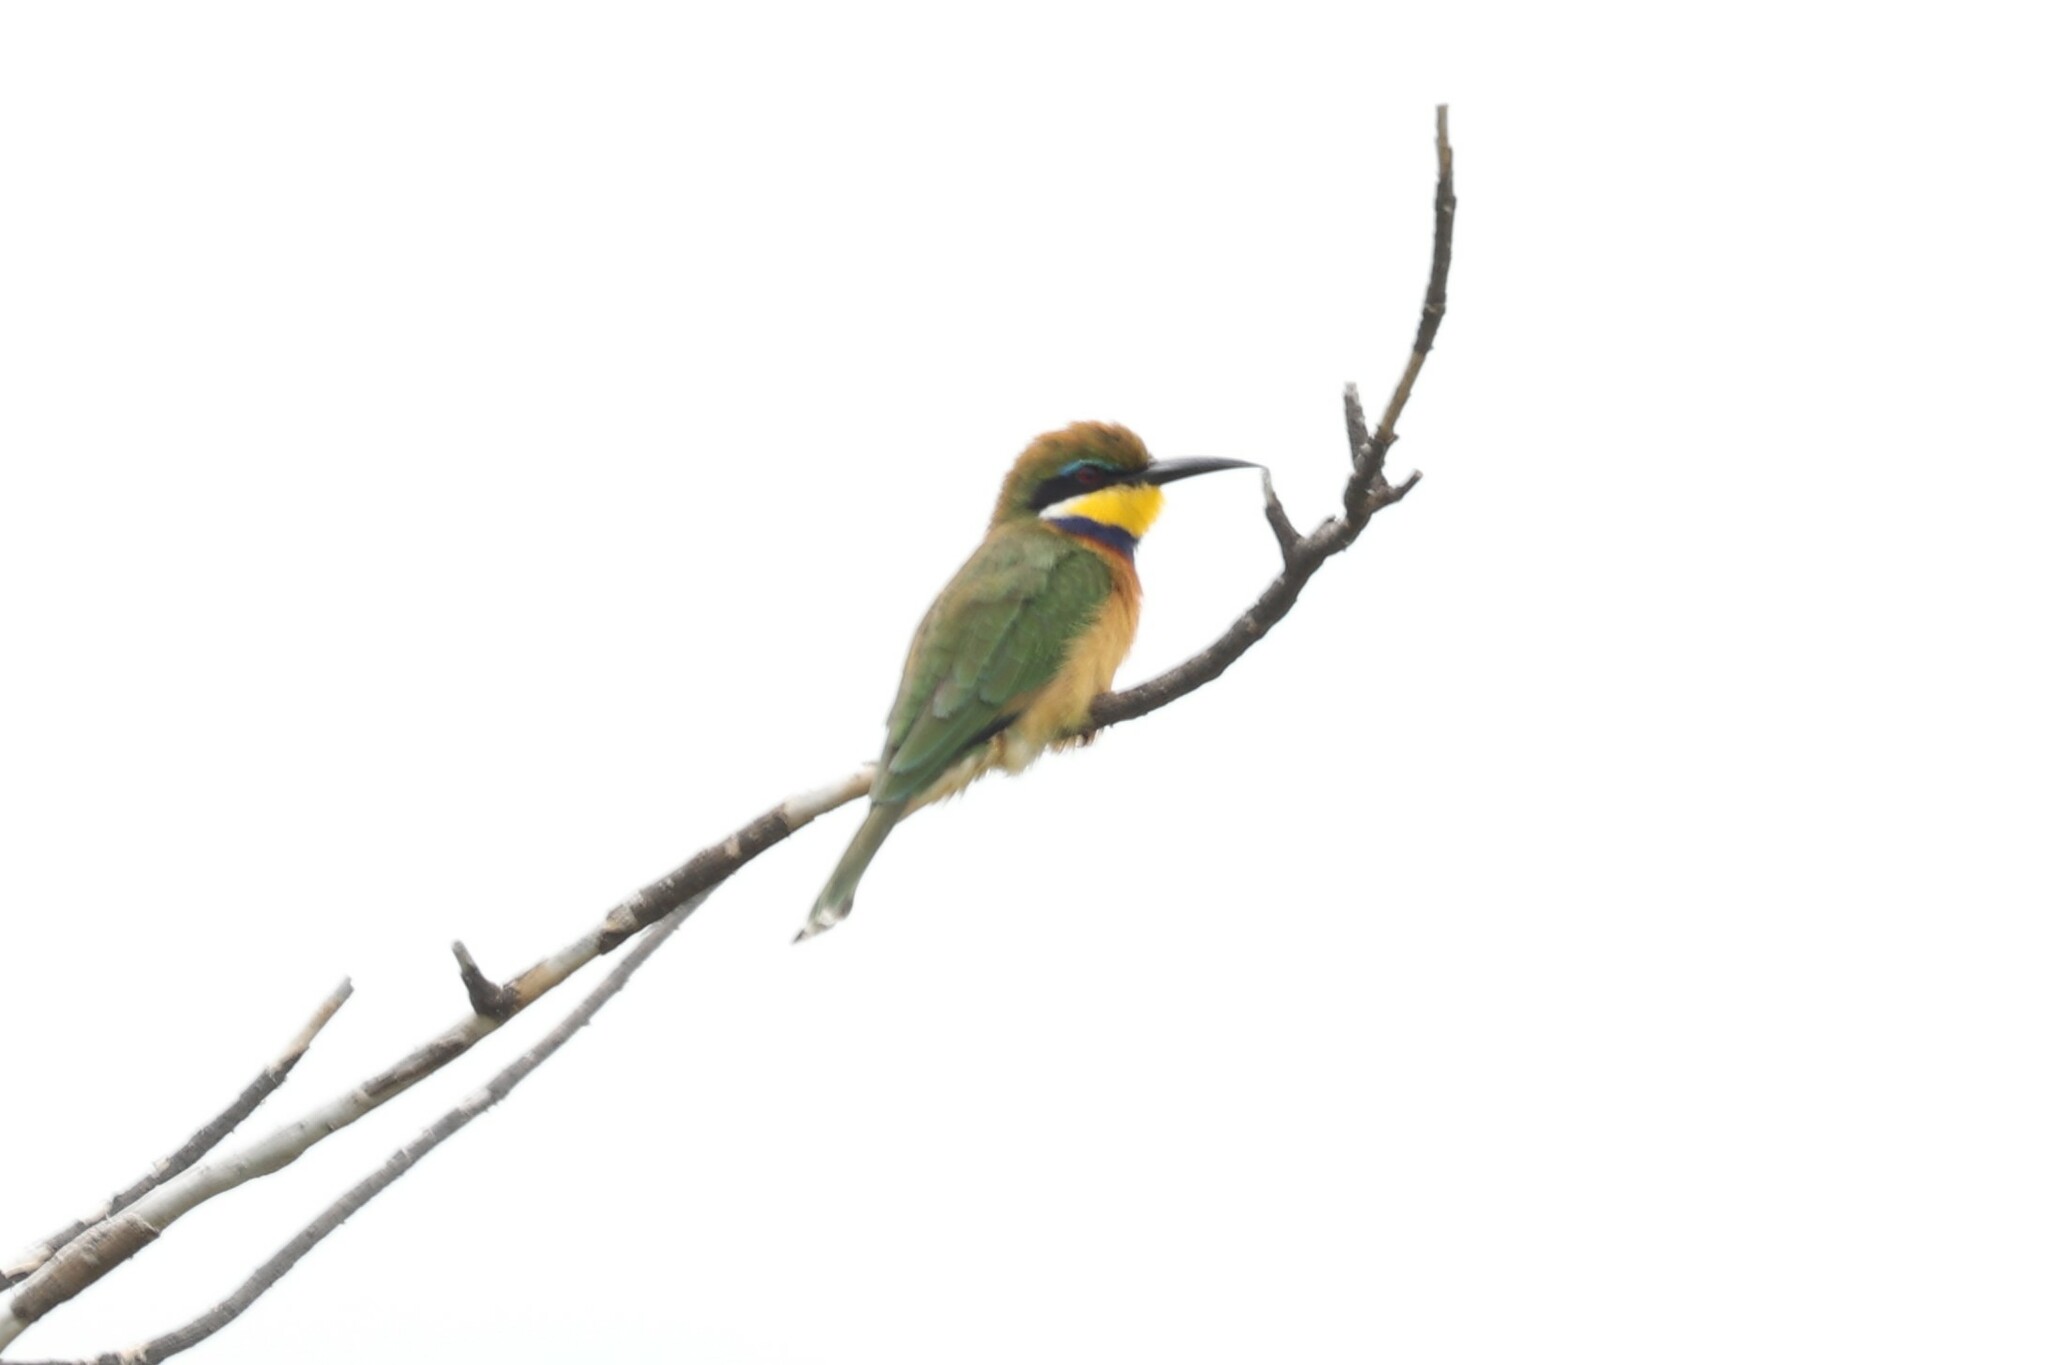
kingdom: Animalia
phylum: Chordata
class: Aves
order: Coraciiformes
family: Meropidae
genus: Merops
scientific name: Merops variegatus
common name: Blue-breasted bee-eater
